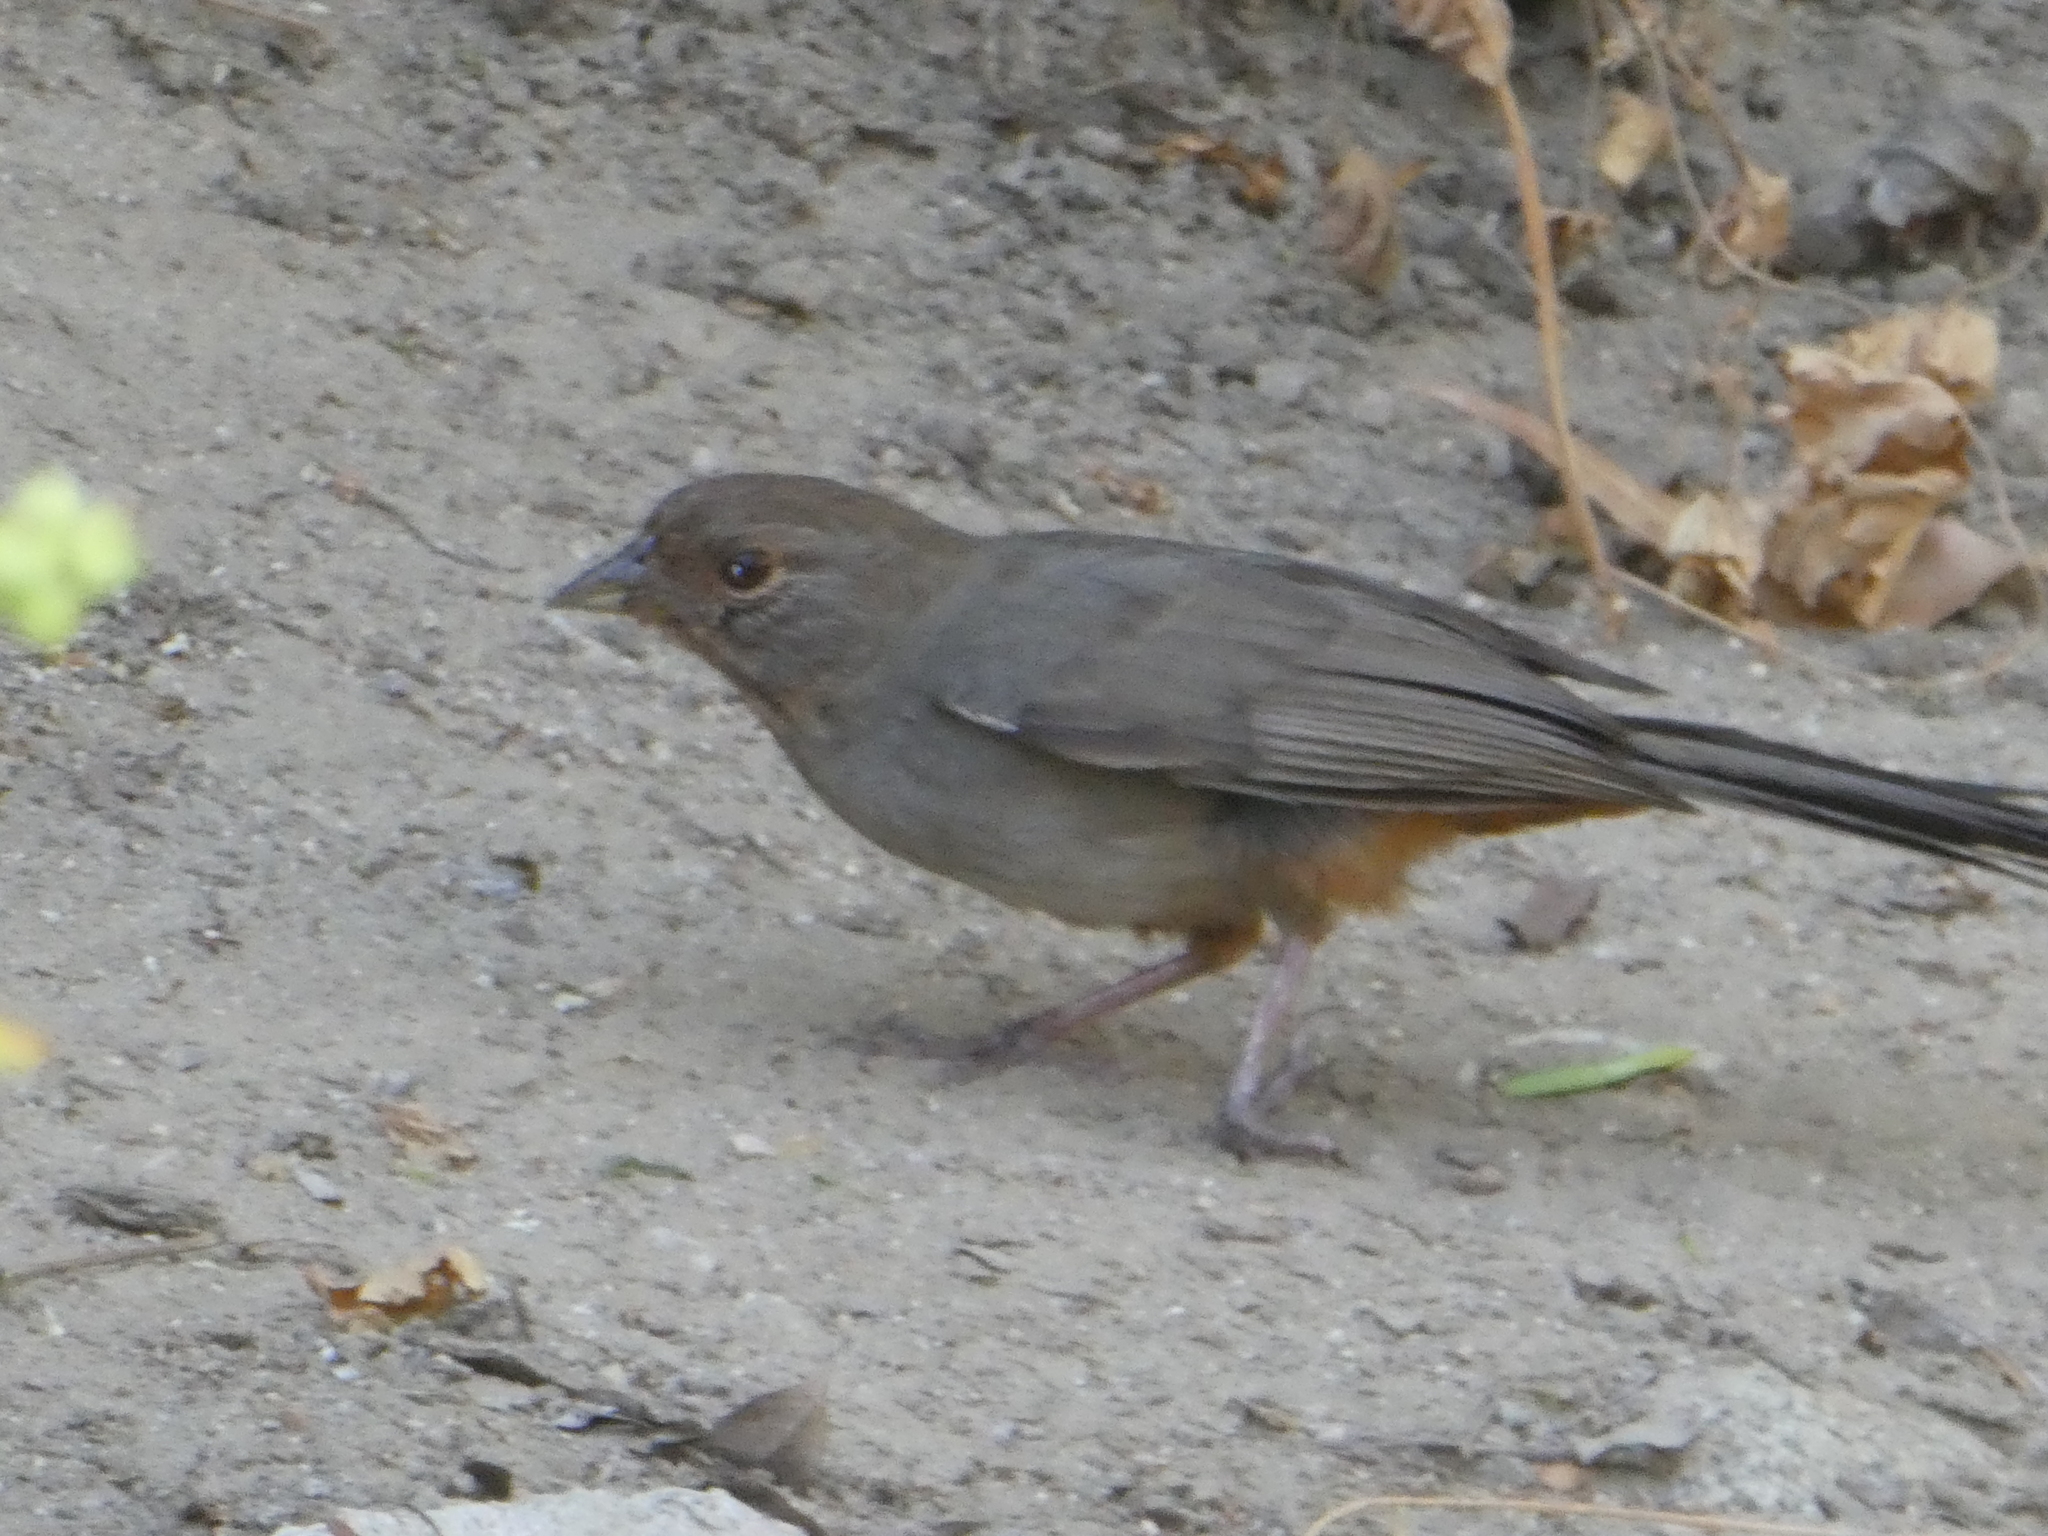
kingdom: Animalia
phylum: Chordata
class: Aves
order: Passeriformes
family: Passerellidae
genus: Melozone
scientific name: Melozone crissalis
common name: California towhee
